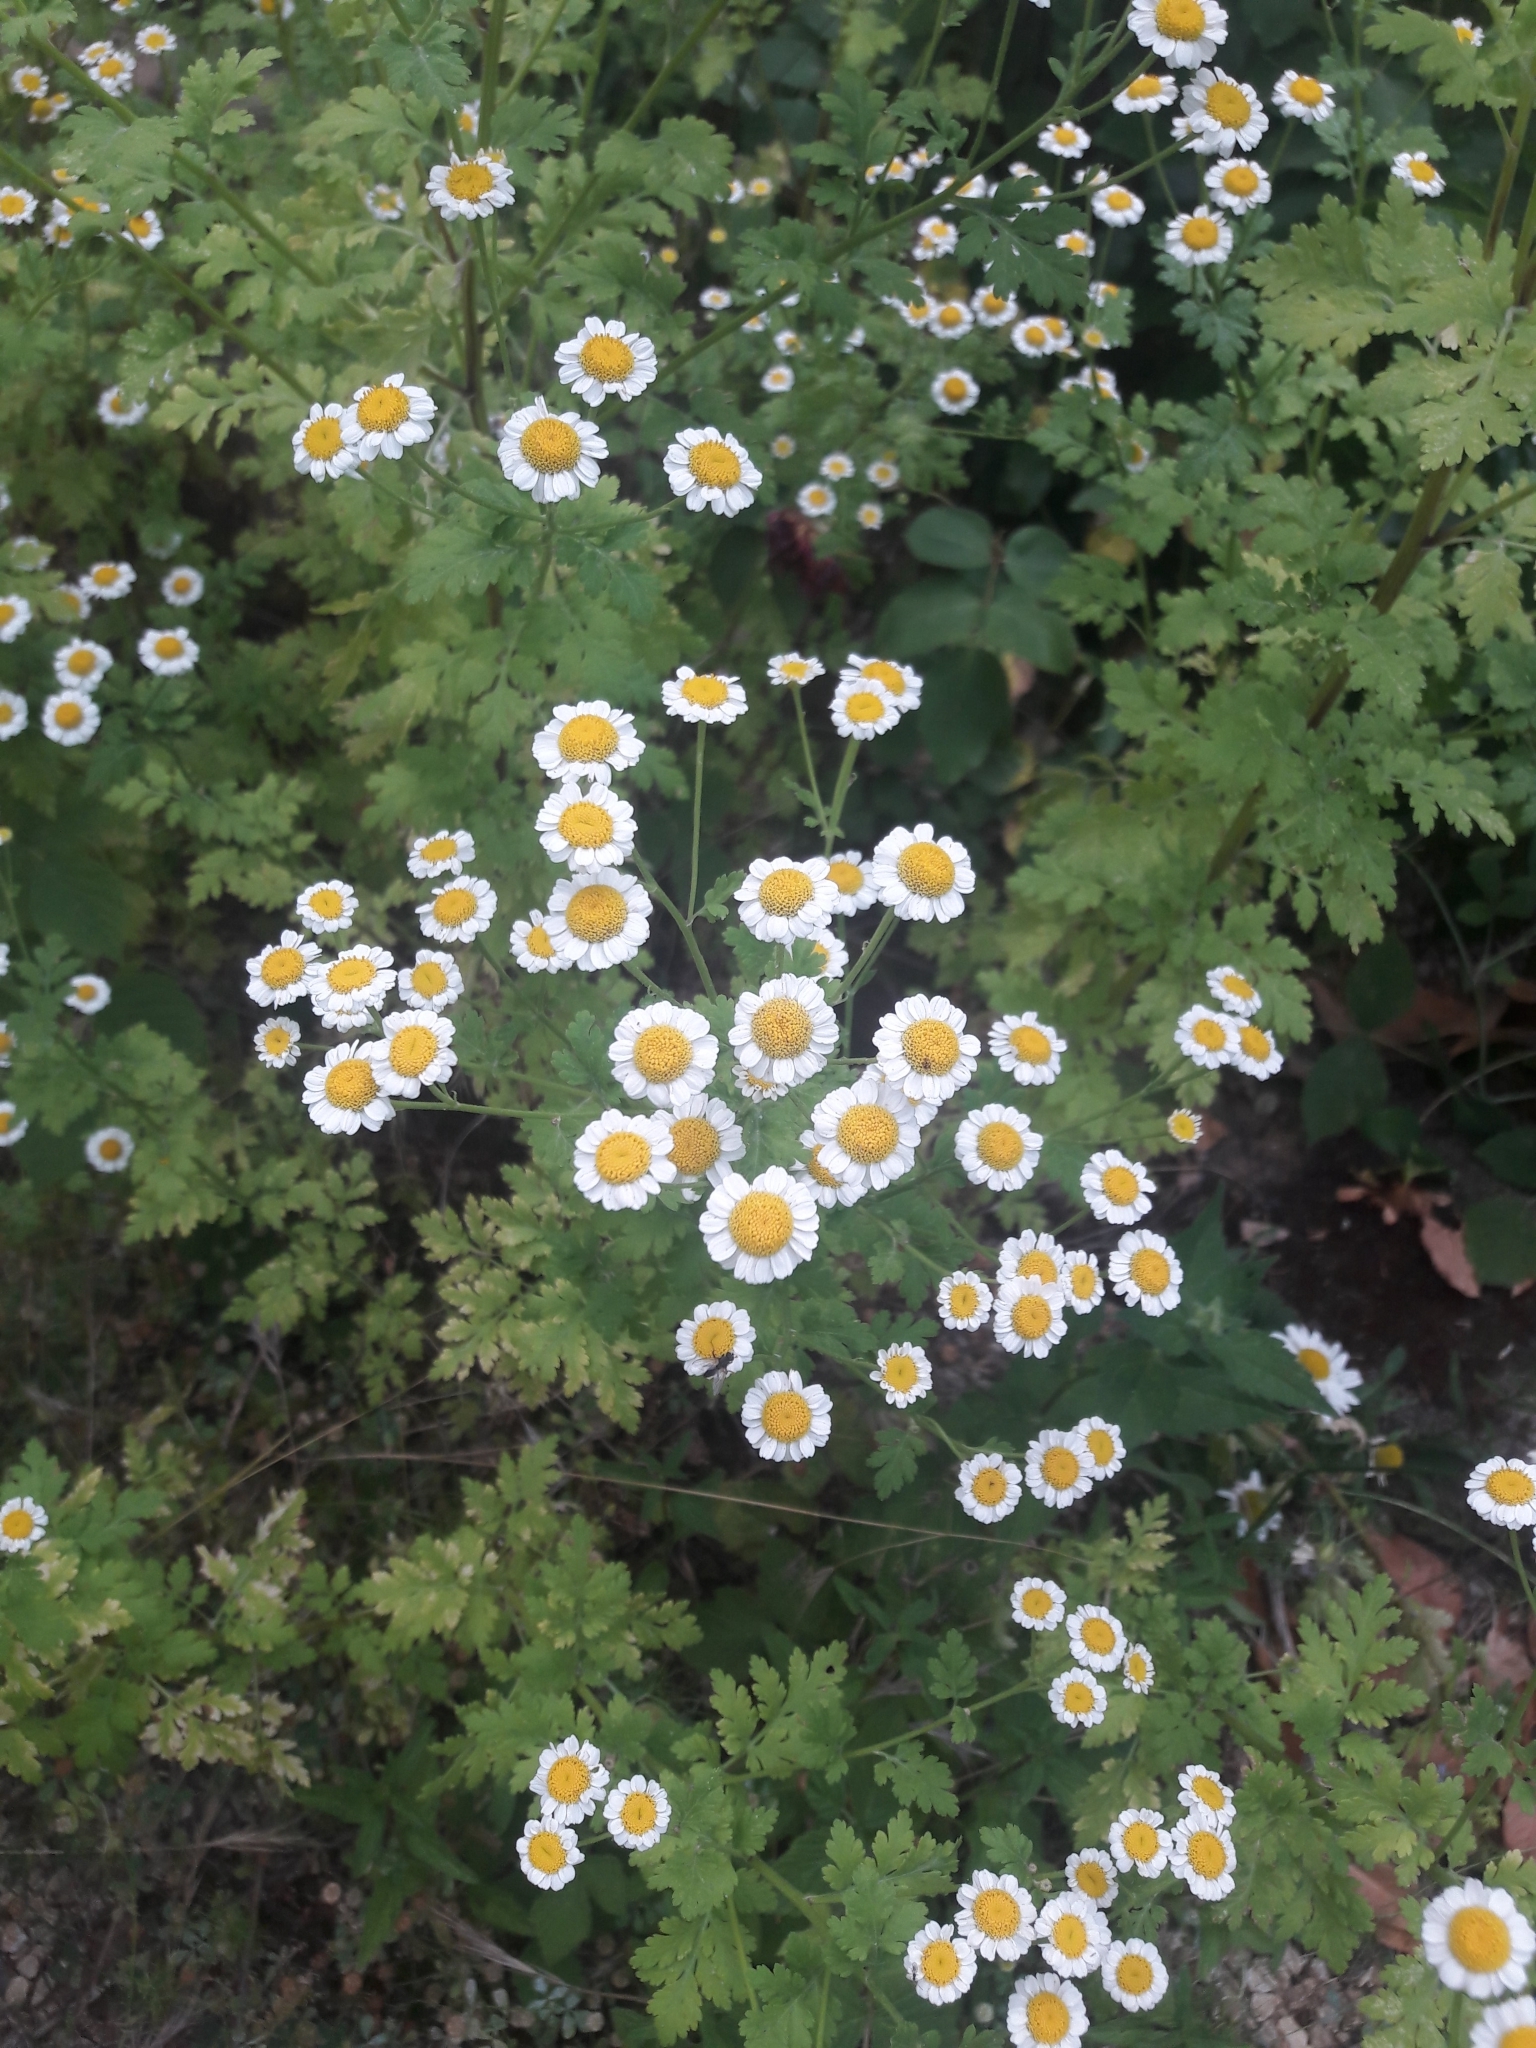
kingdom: Plantae
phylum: Tracheophyta
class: Magnoliopsida
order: Asterales
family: Asteraceae
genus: Tanacetum
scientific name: Tanacetum parthenium
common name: Feverfew
